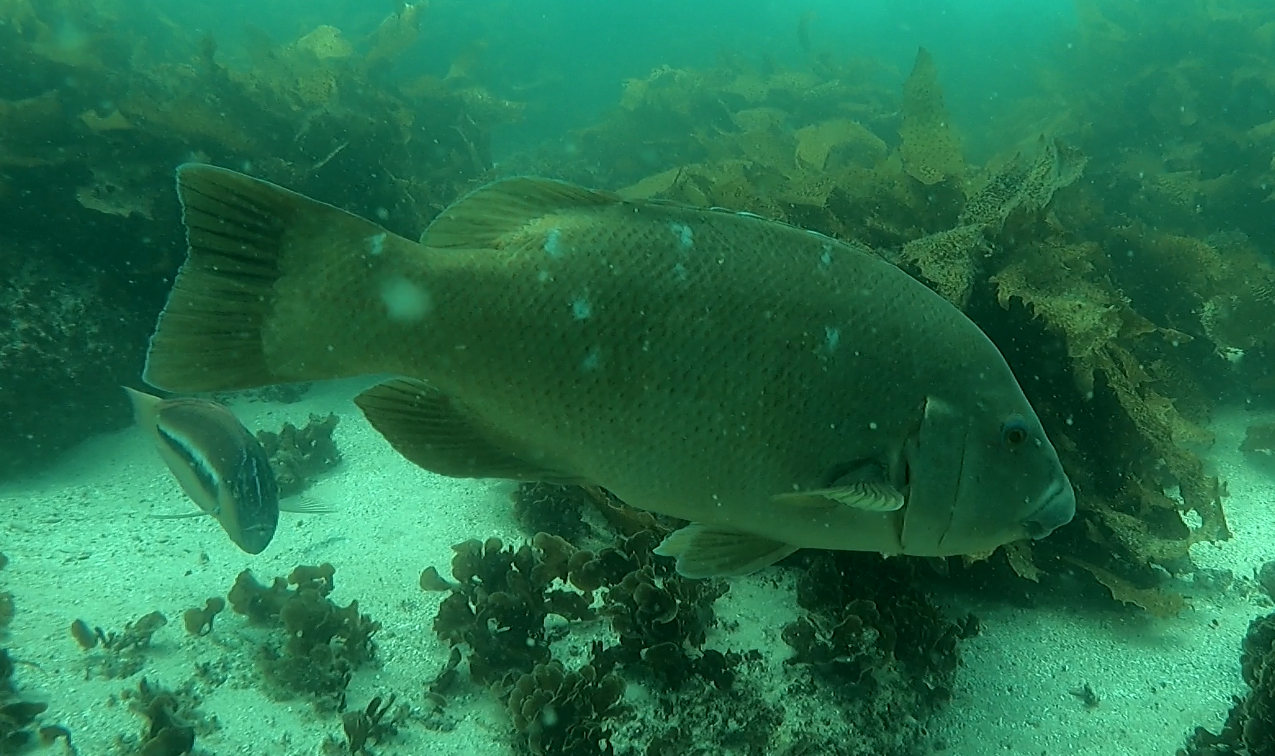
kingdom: Animalia
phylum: Chordata
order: Perciformes
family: Labridae
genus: Achoerodus
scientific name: Achoerodus viridis
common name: Brown groper
